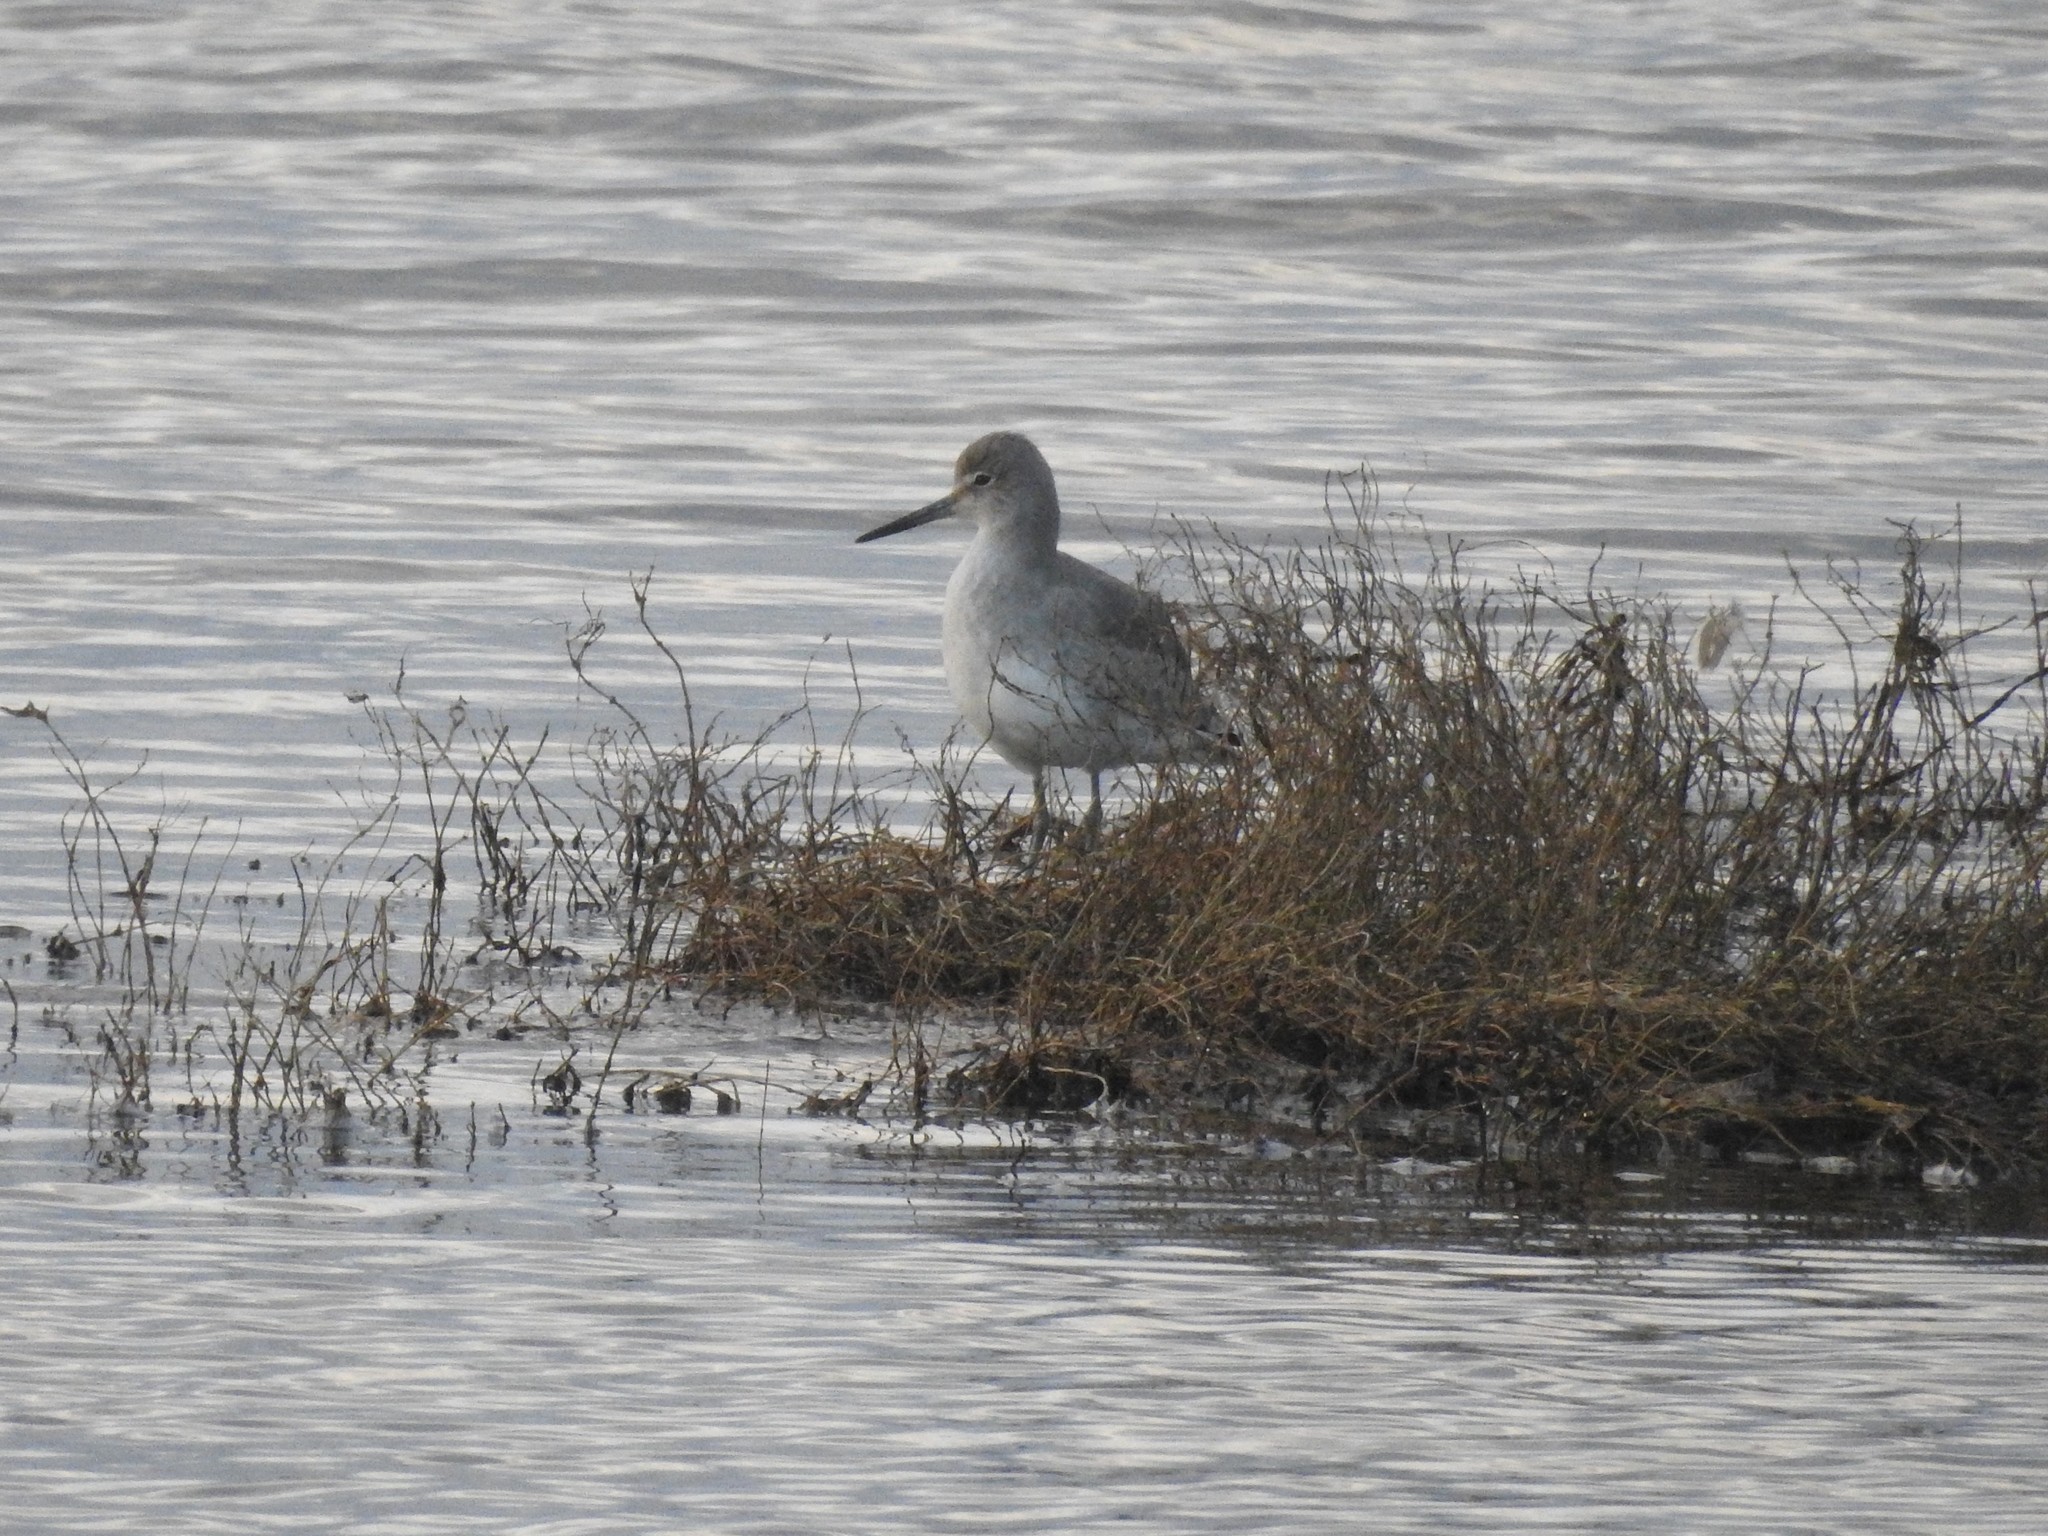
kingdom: Animalia
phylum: Chordata
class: Aves
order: Charadriiformes
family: Scolopacidae
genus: Tringa
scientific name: Tringa semipalmata
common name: Willet
